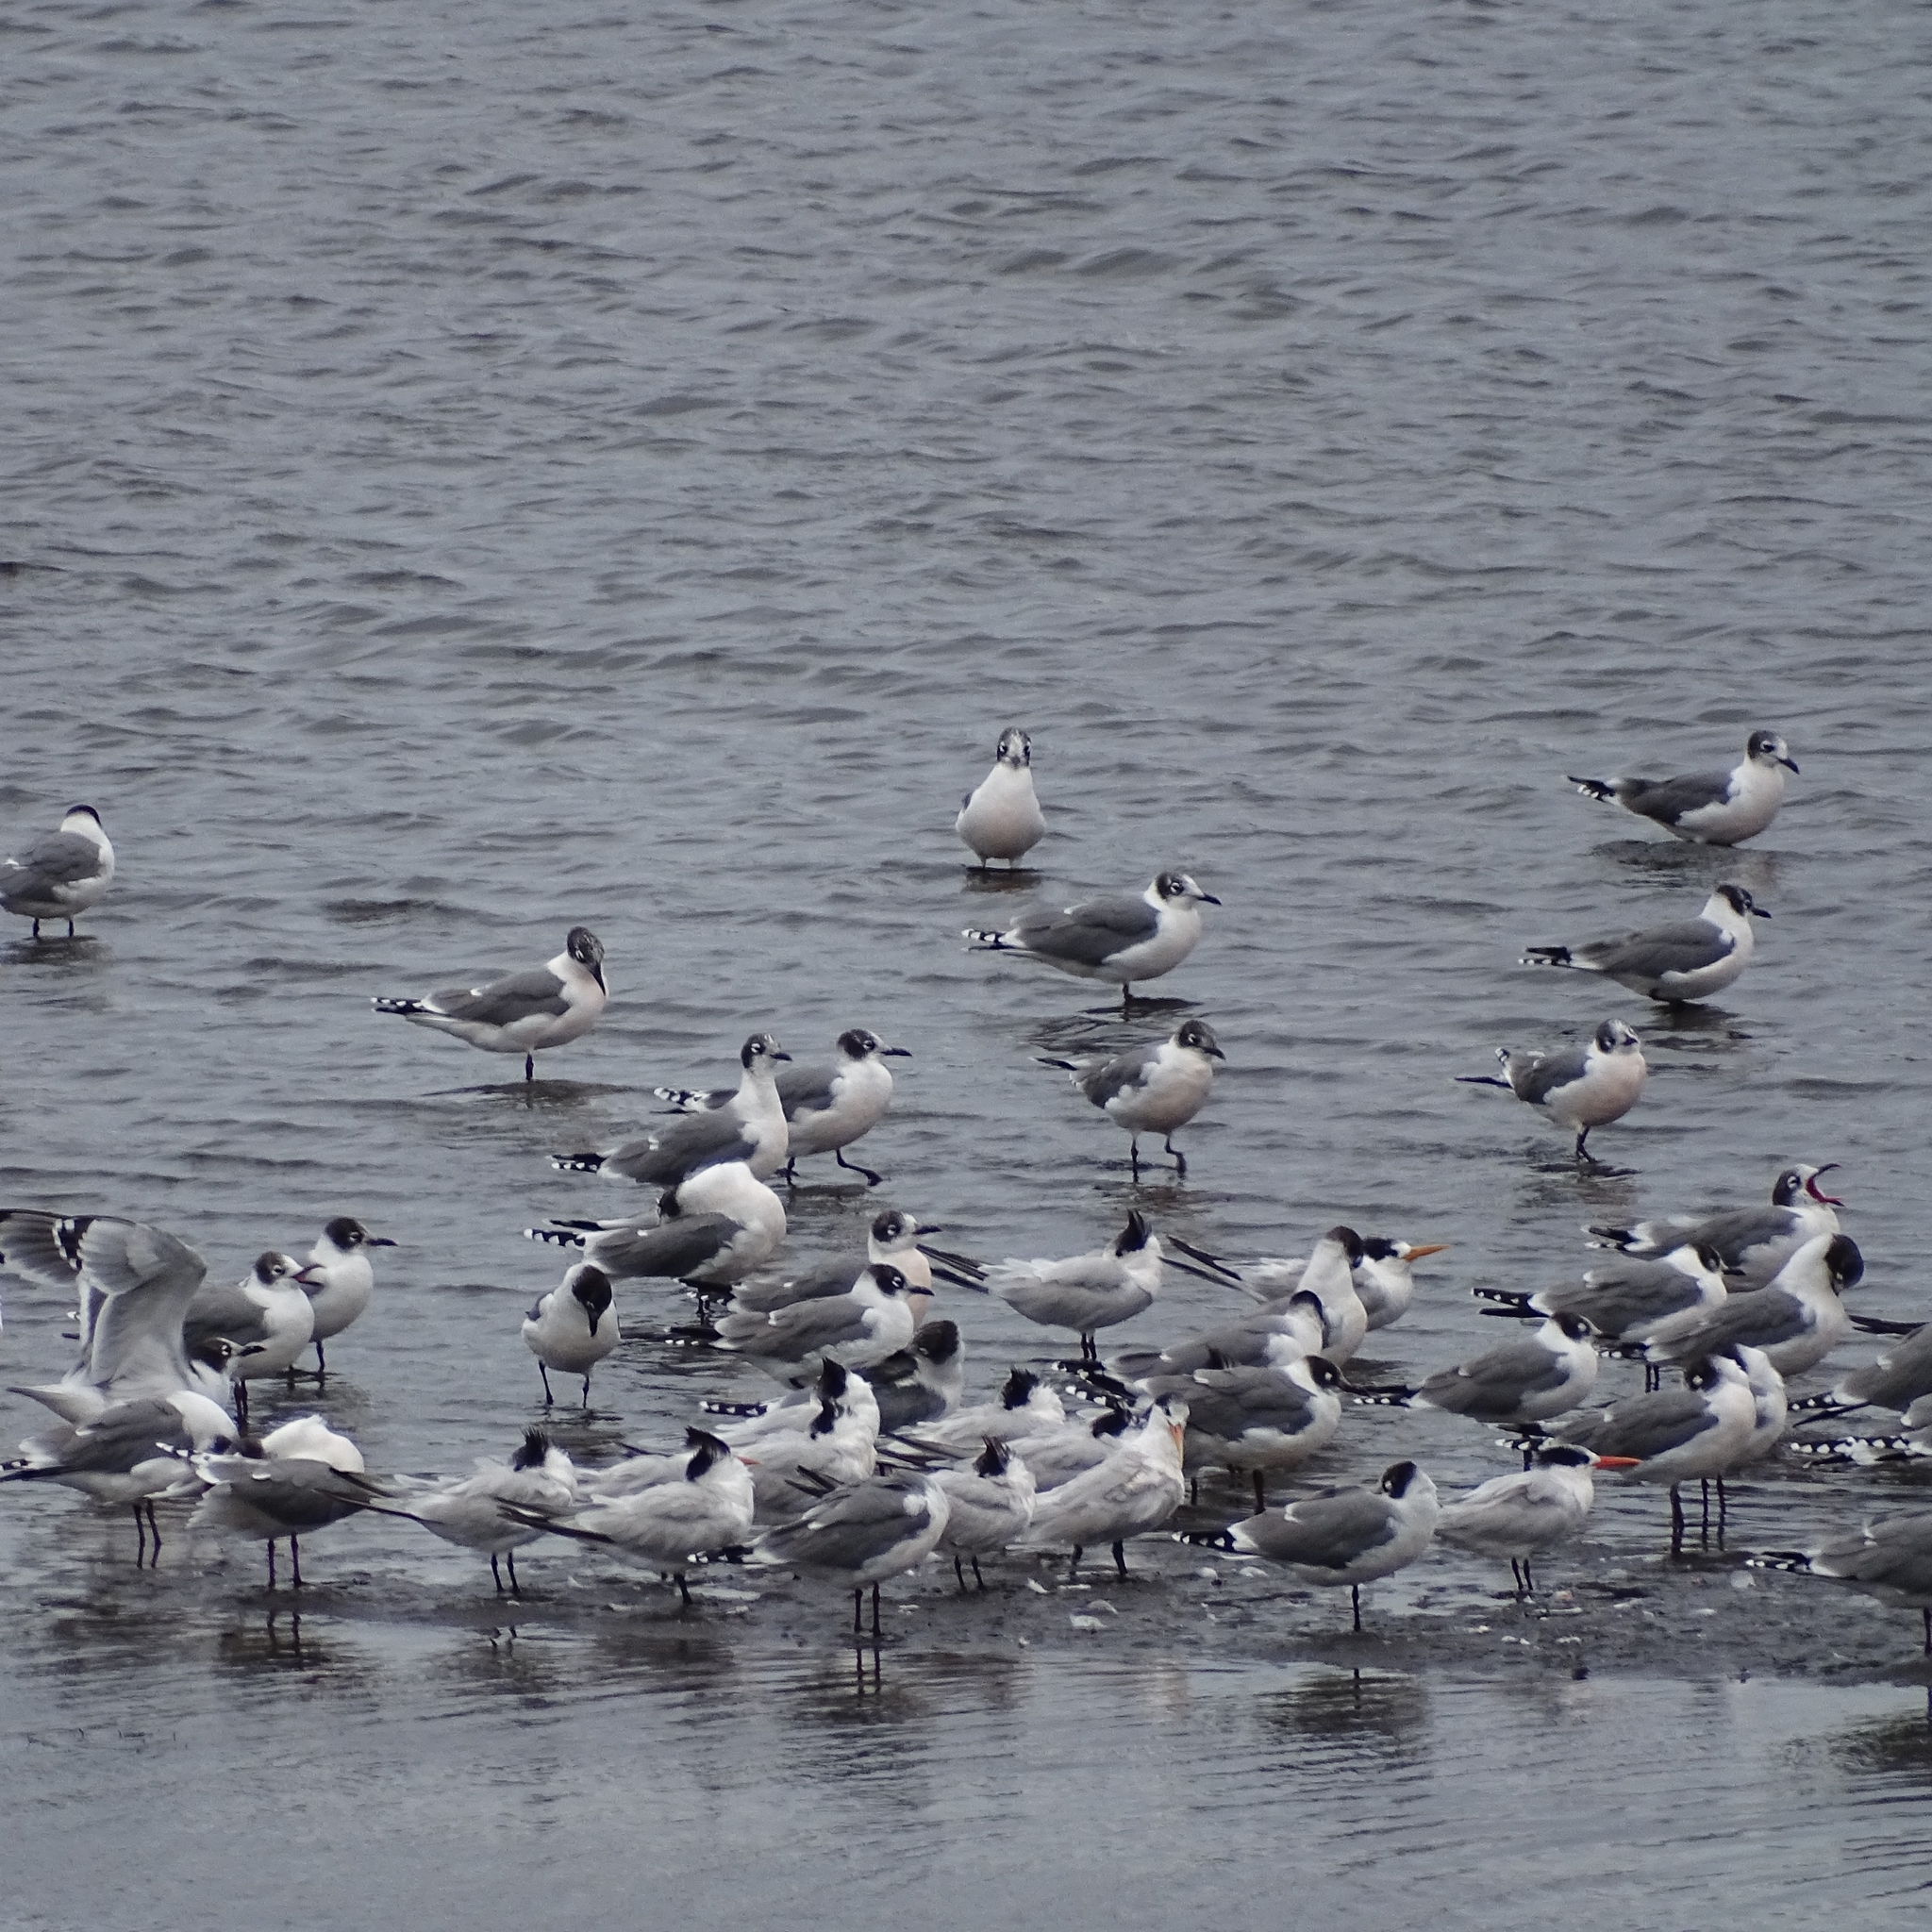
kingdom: Animalia
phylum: Chordata
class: Aves
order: Charadriiformes
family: Laridae
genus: Leucophaeus
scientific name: Leucophaeus pipixcan
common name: Franklin's gull
